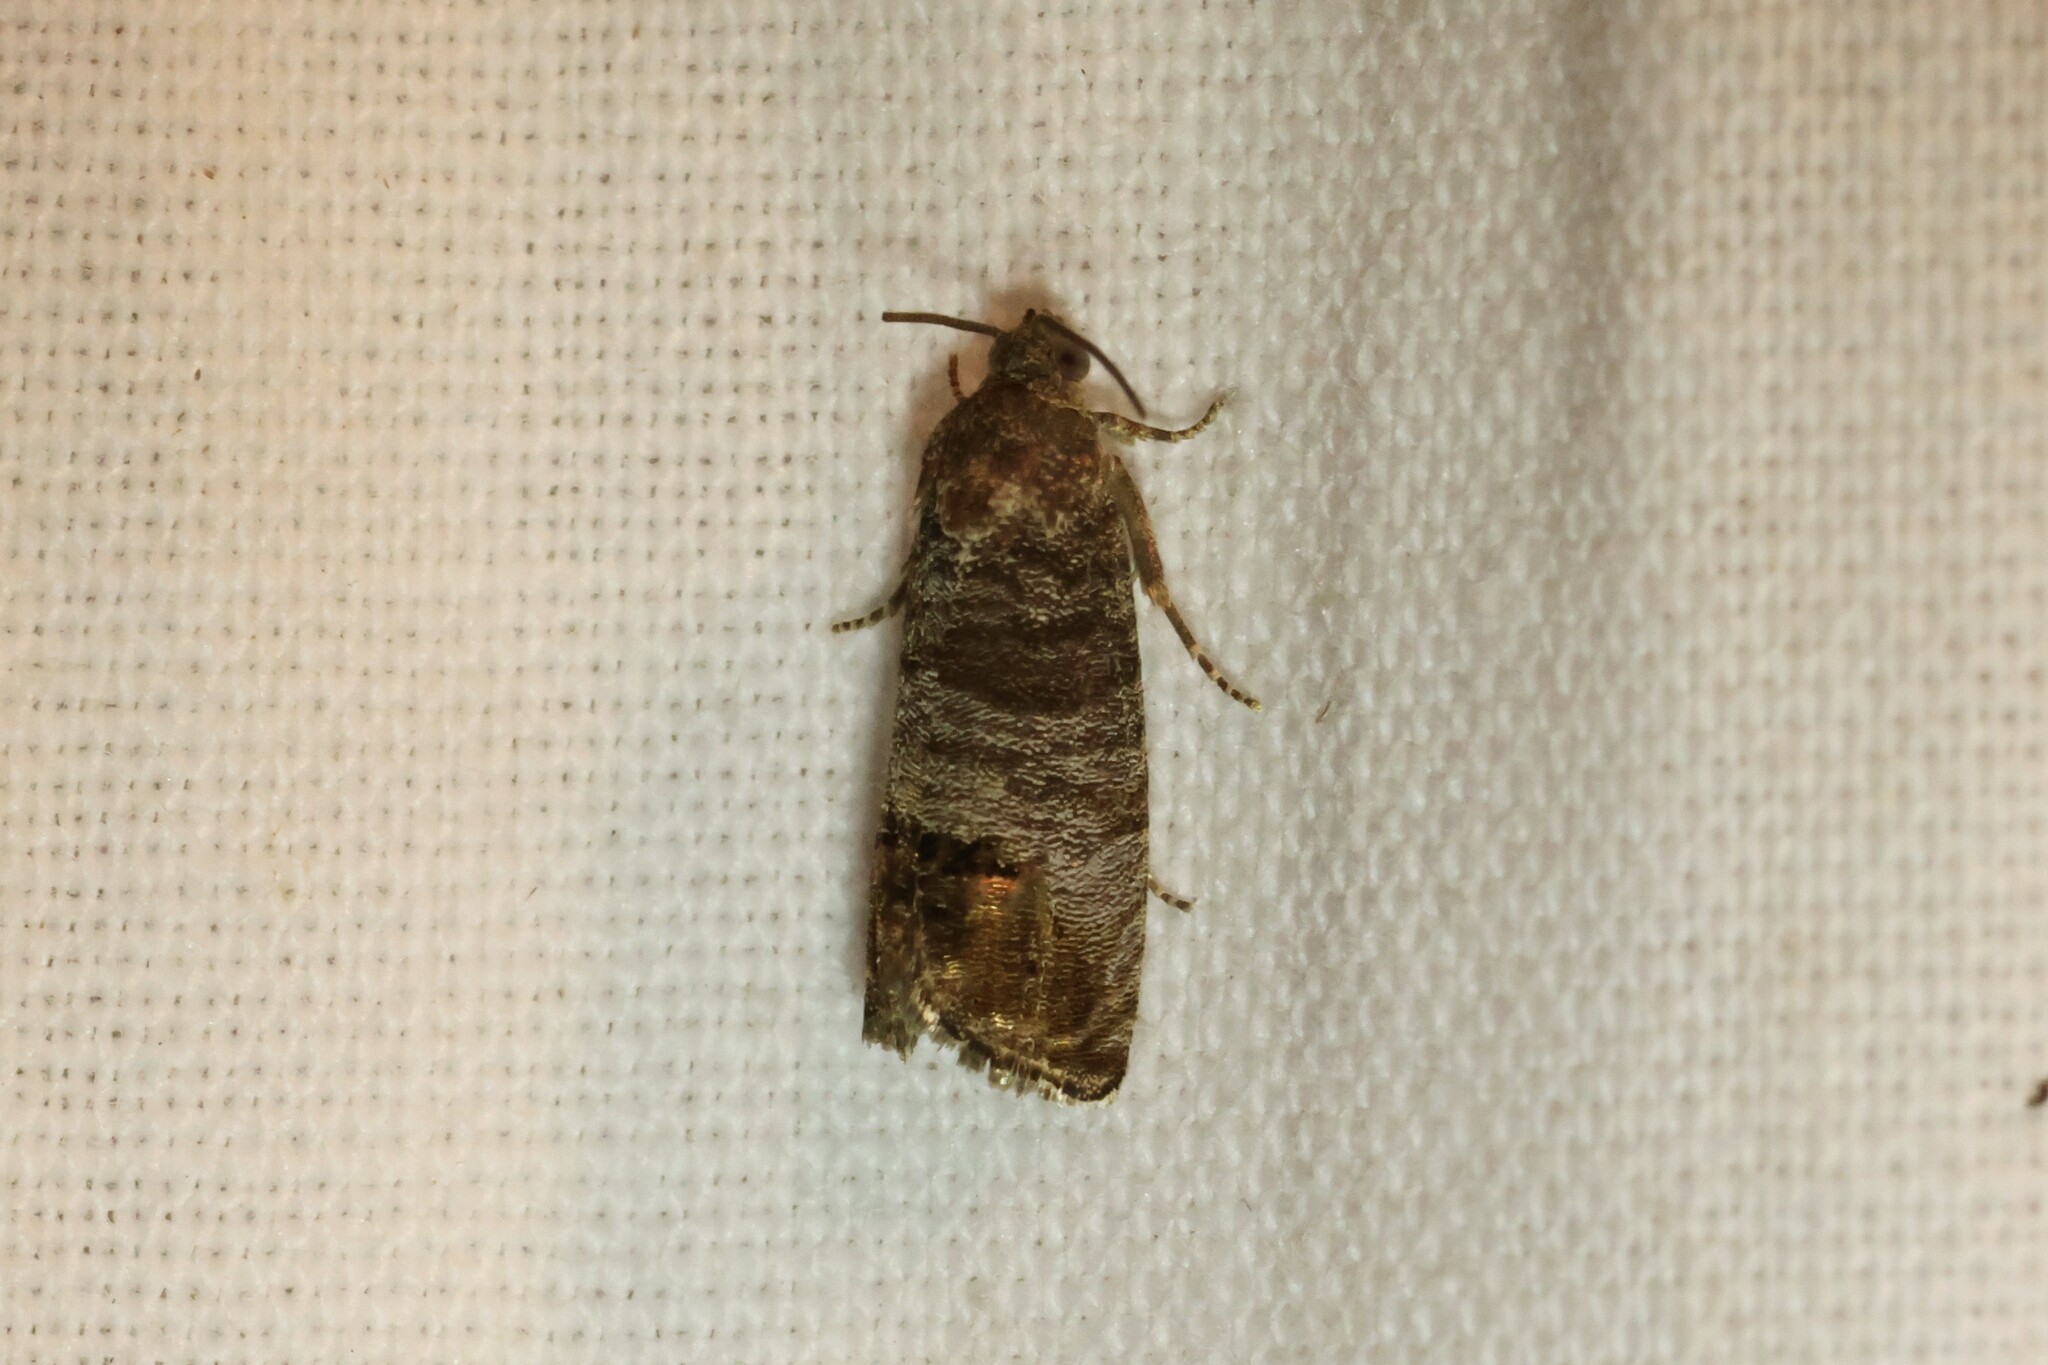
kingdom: Animalia
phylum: Arthropoda
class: Insecta
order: Lepidoptera
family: Tortricidae
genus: Cydia
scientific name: Cydia pomonella
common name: Codling moth
